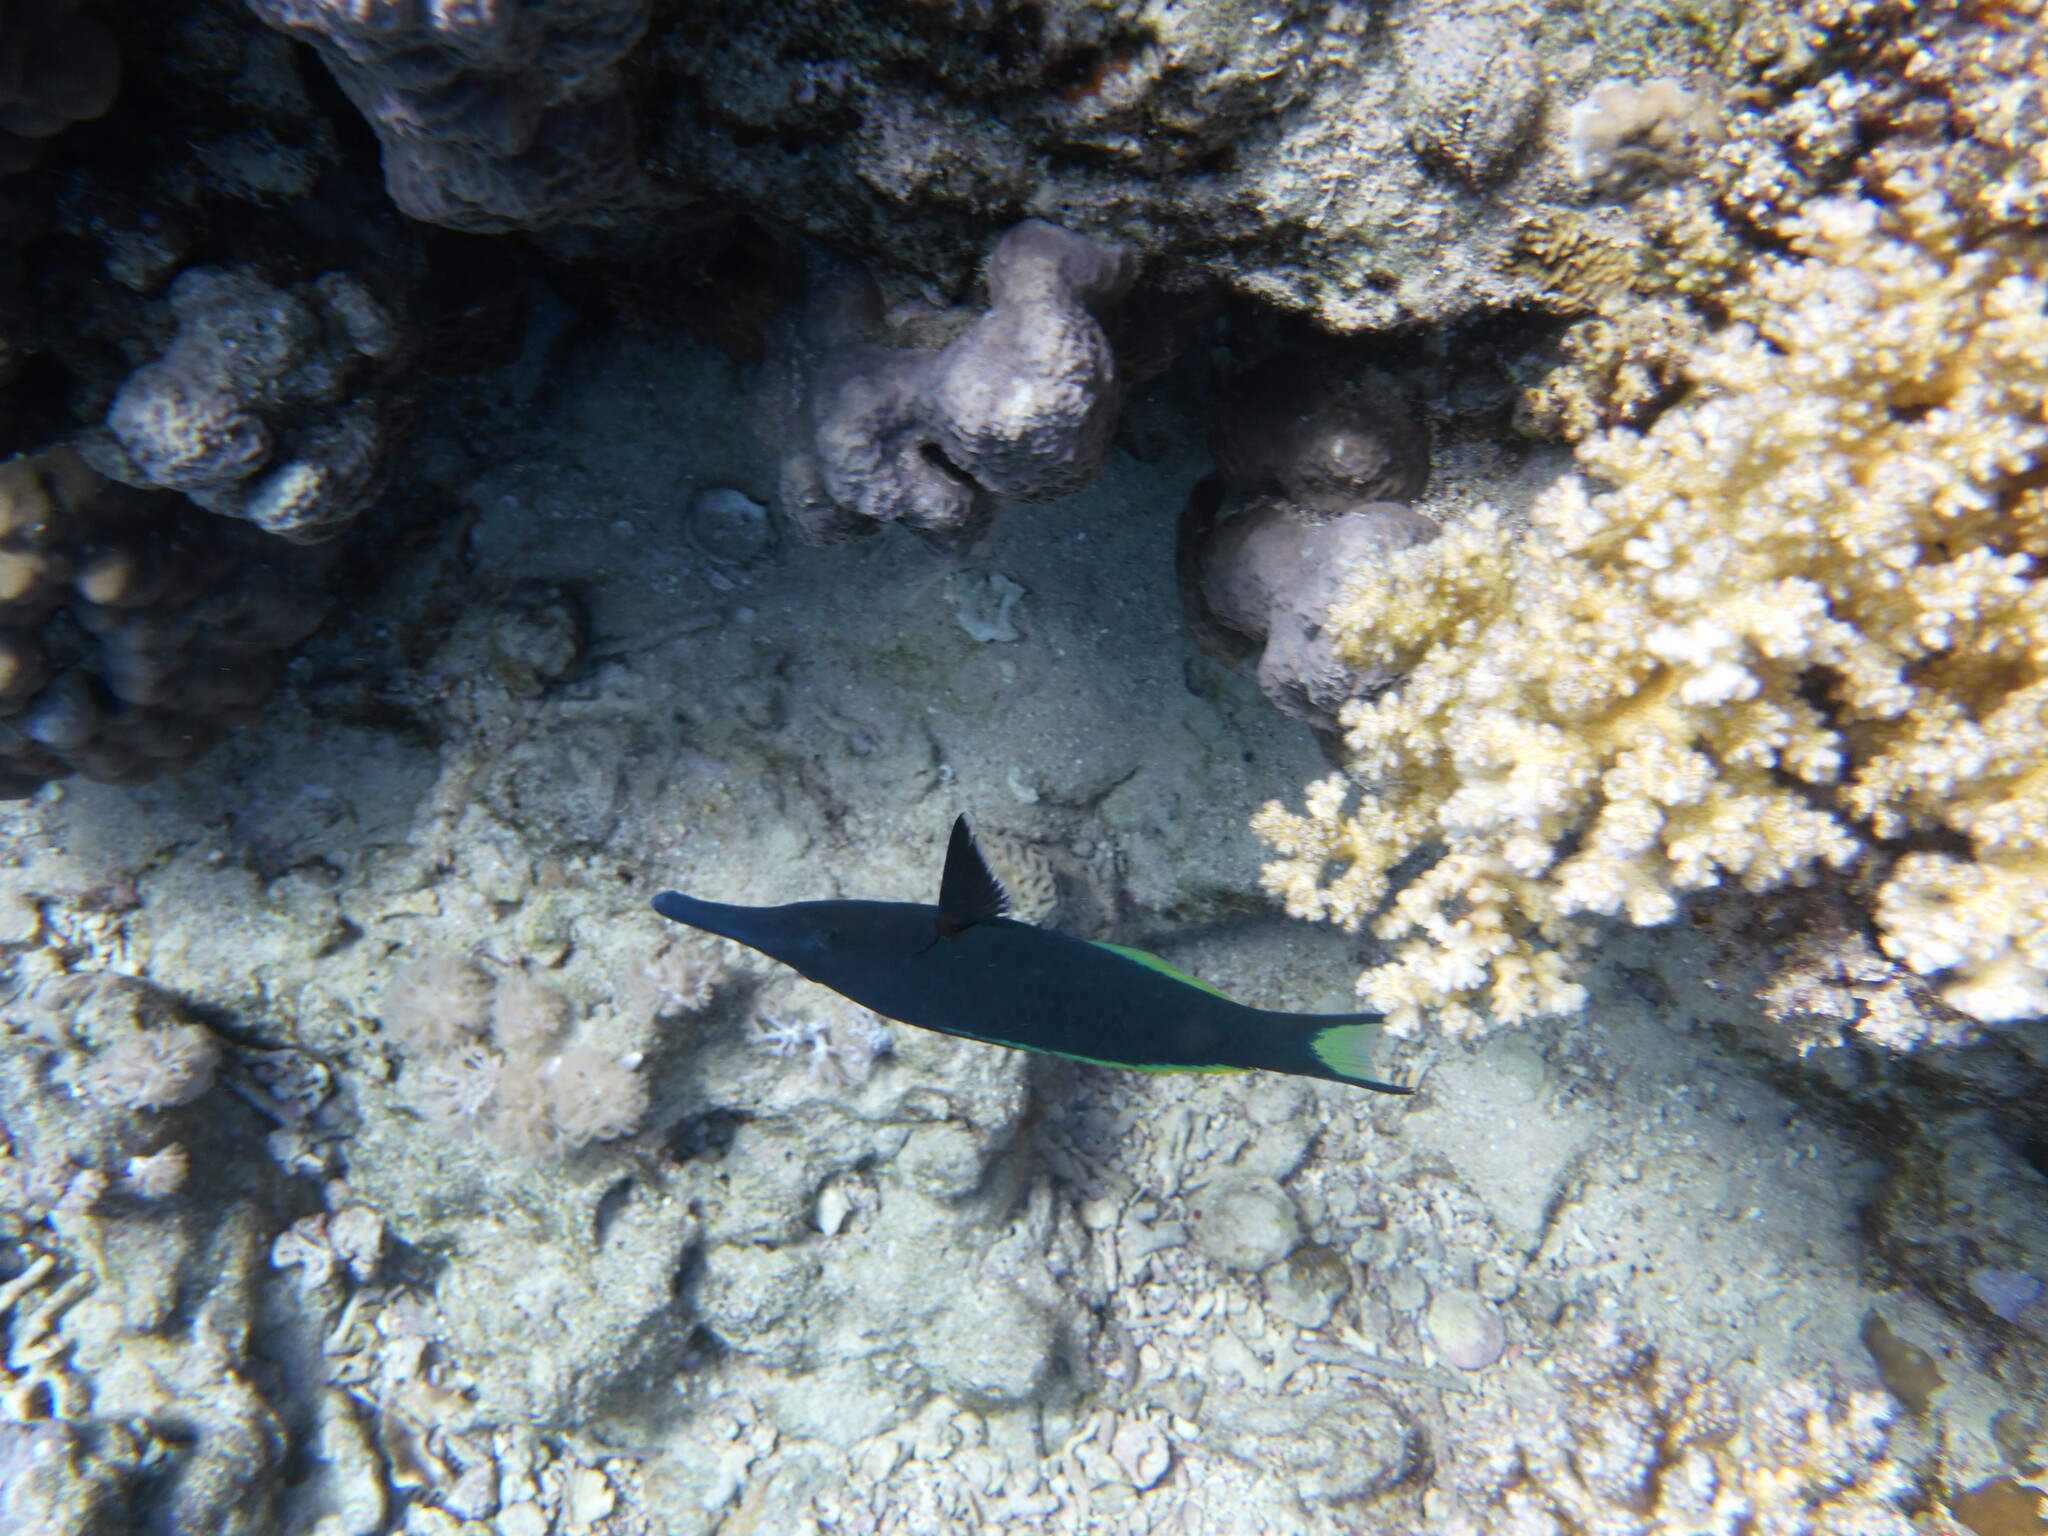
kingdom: Animalia
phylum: Chordata
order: Perciformes
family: Labridae
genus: Gomphosus
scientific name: Gomphosus klunzingeri
